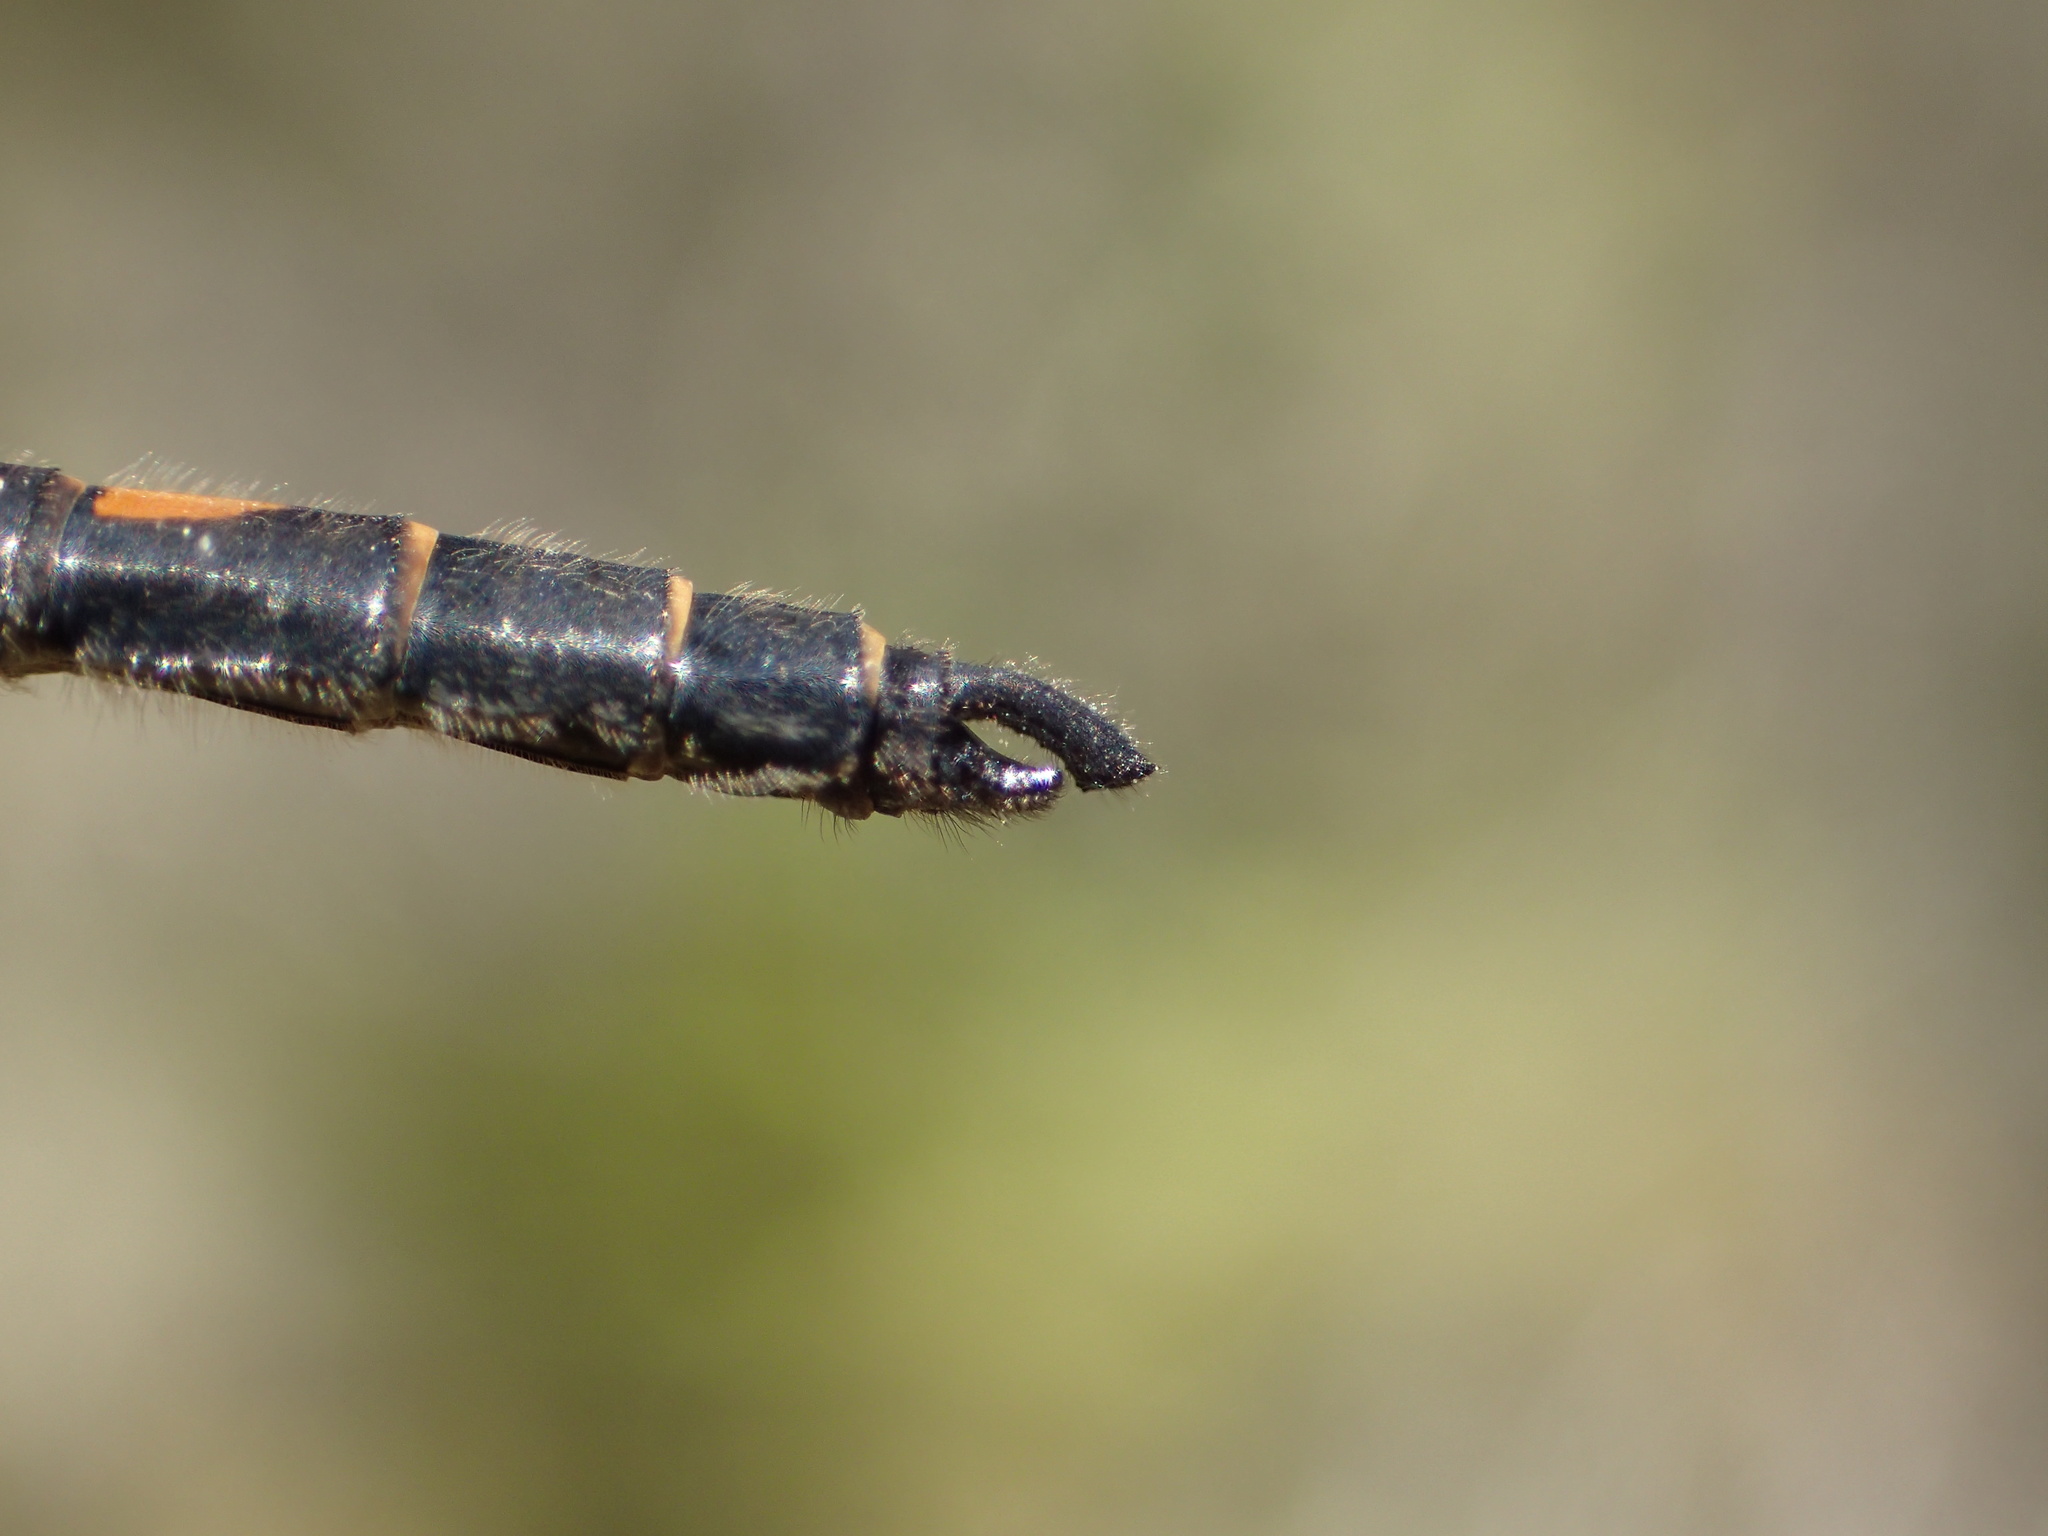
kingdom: Animalia
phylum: Arthropoda
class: Insecta
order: Odonata
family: Libellulidae
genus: Leucorrhinia
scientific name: Leucorrhinia hudsonica
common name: Hudsonian whiteface
